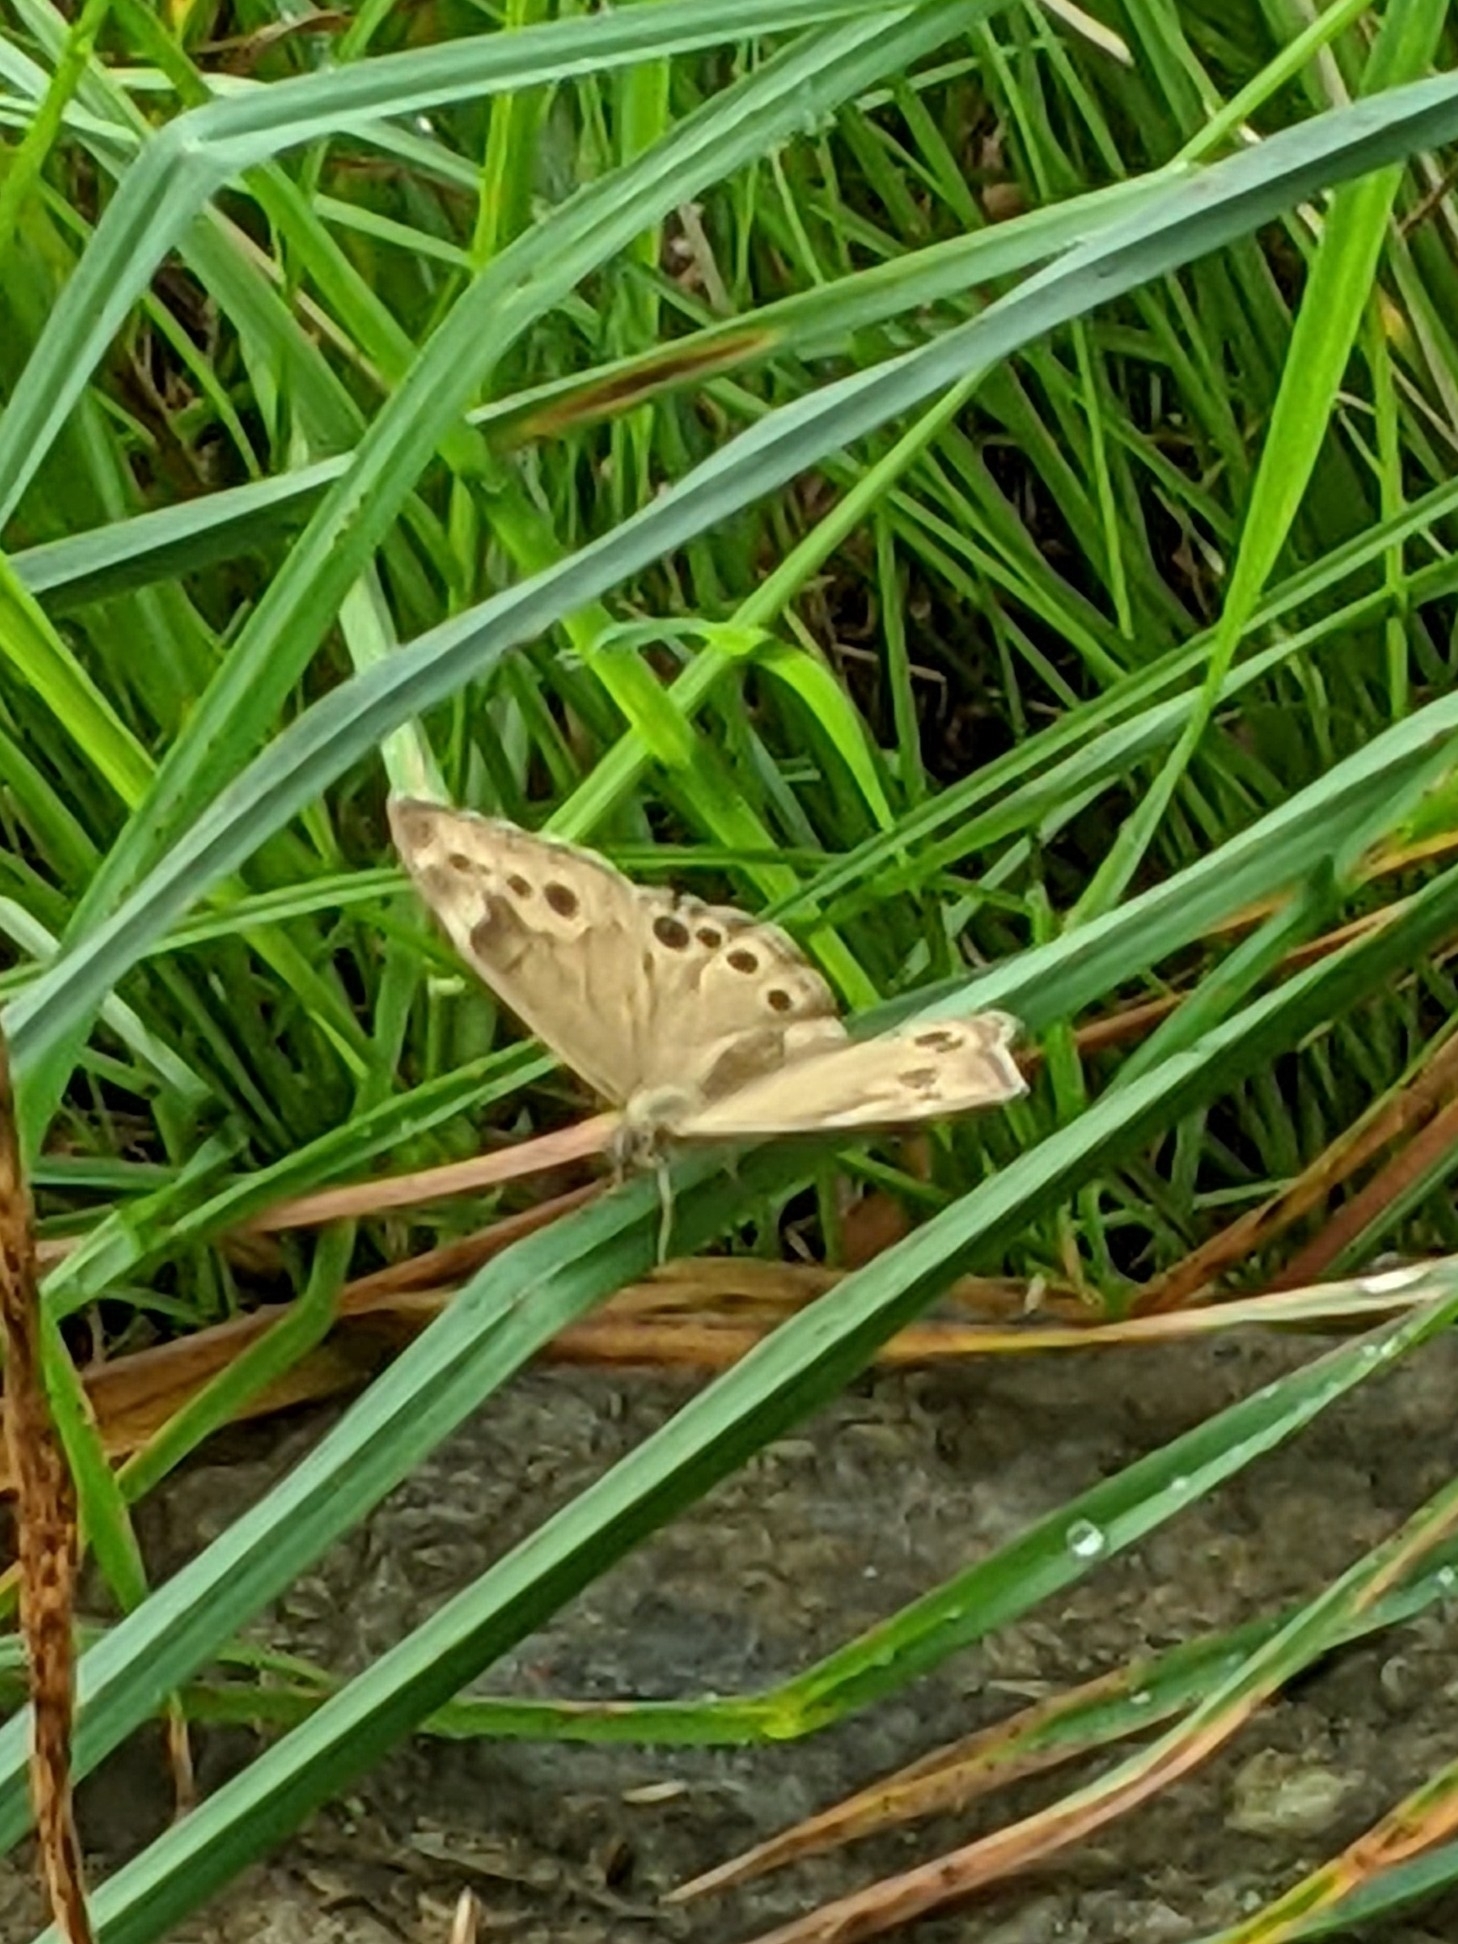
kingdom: Animalia
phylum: Arthropoda
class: Insecta
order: Lepidoptera
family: Nymphalidae
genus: Lethe
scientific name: Lethe anthedon
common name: Northern pearly-eye
